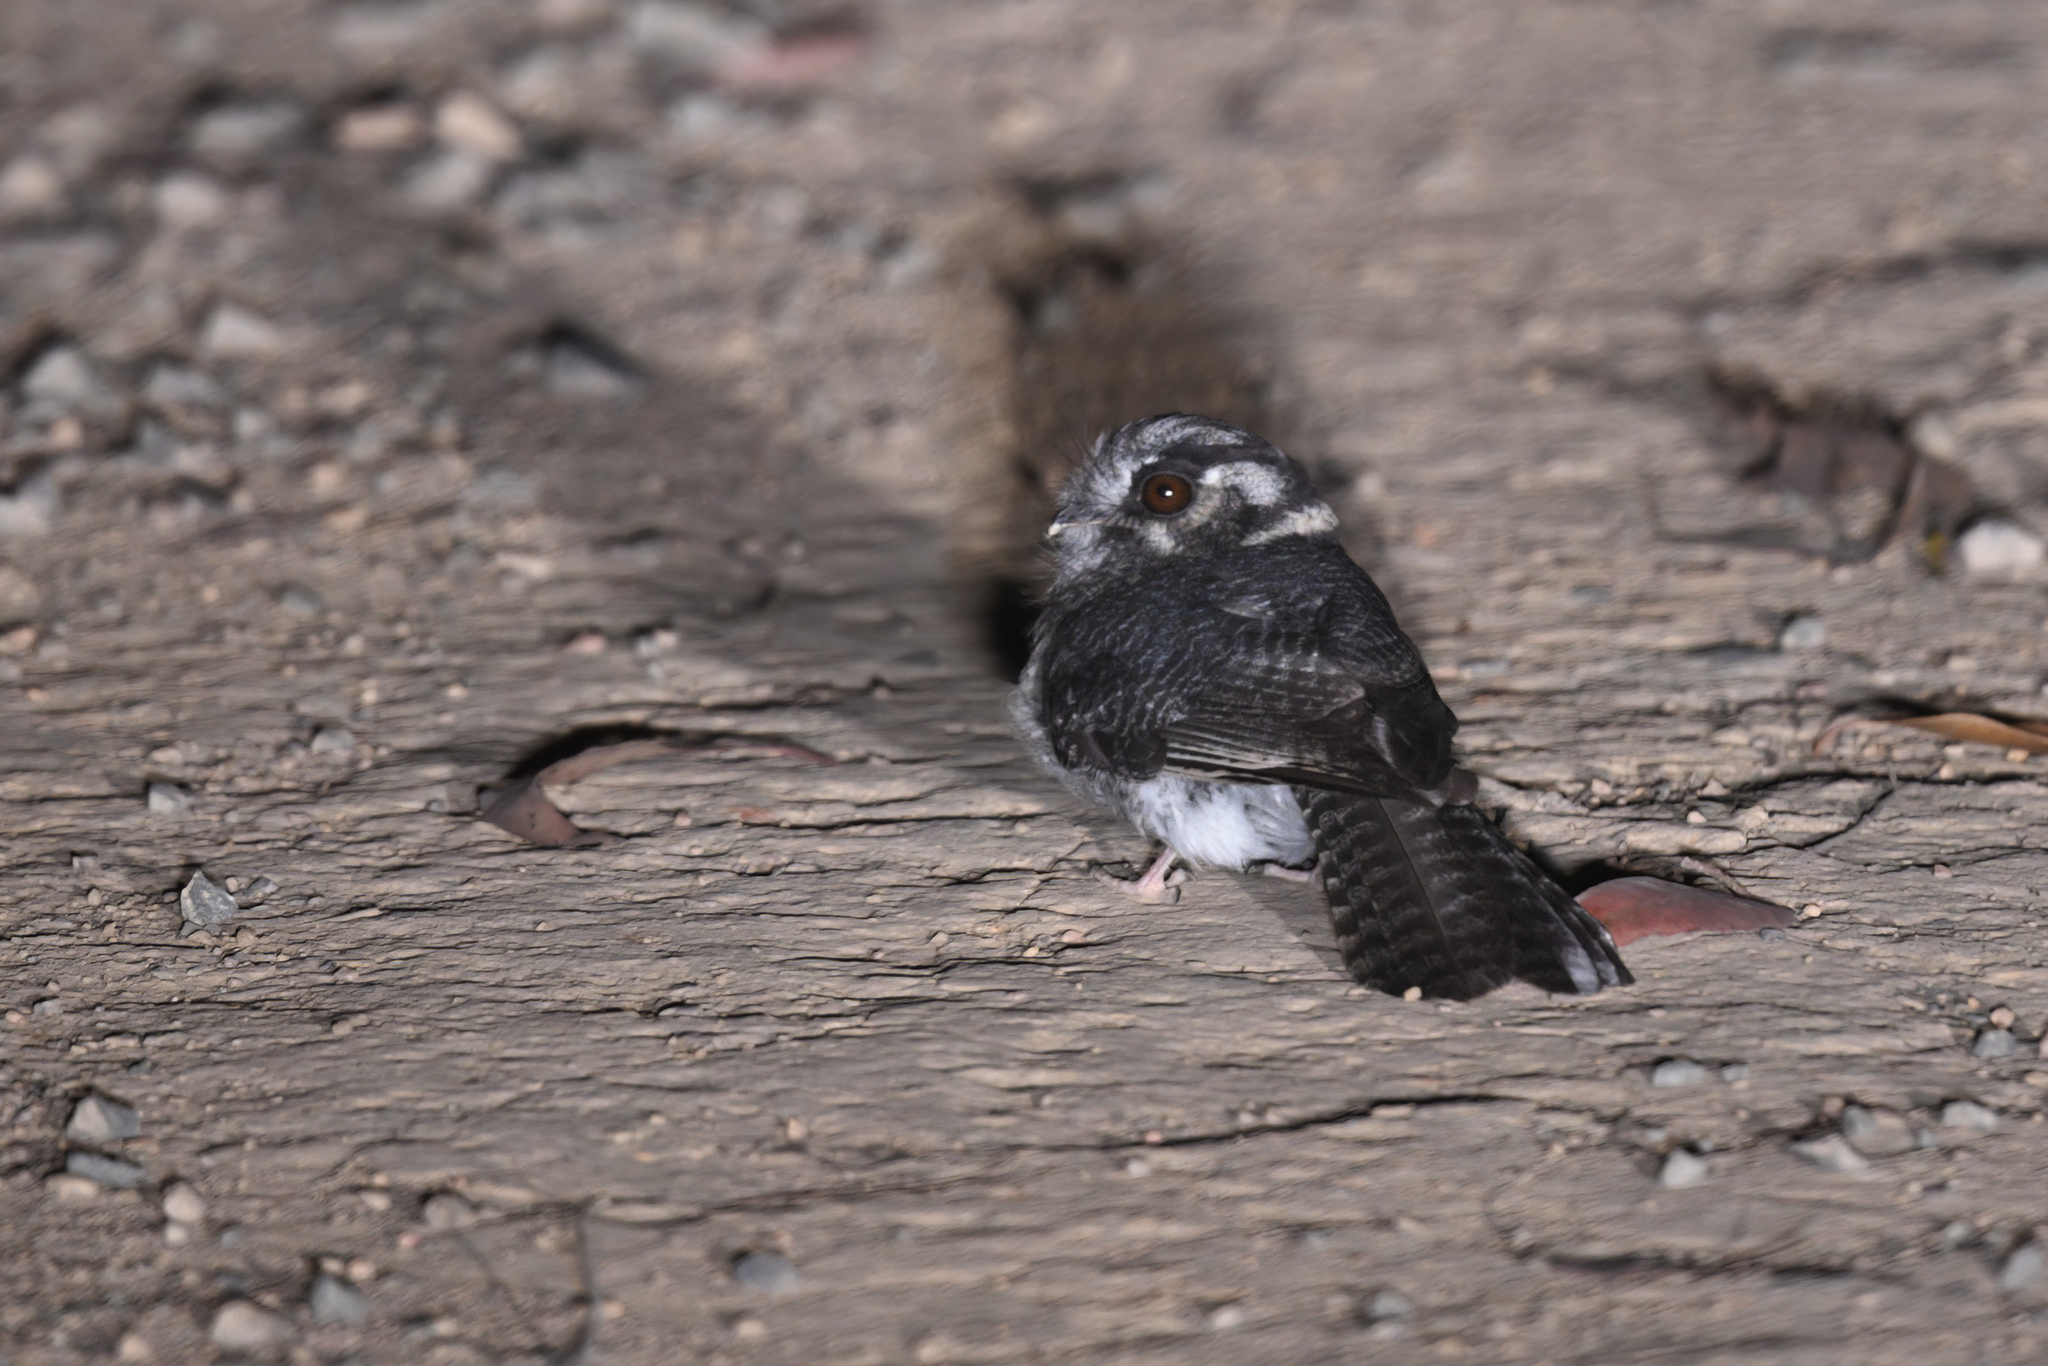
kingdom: Animalia
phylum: Chordata
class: Aves
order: Apodiformes
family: Aegothelidae
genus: Aegotheles
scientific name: Aegotheles cristatus
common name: Australian owlet-nightjar
